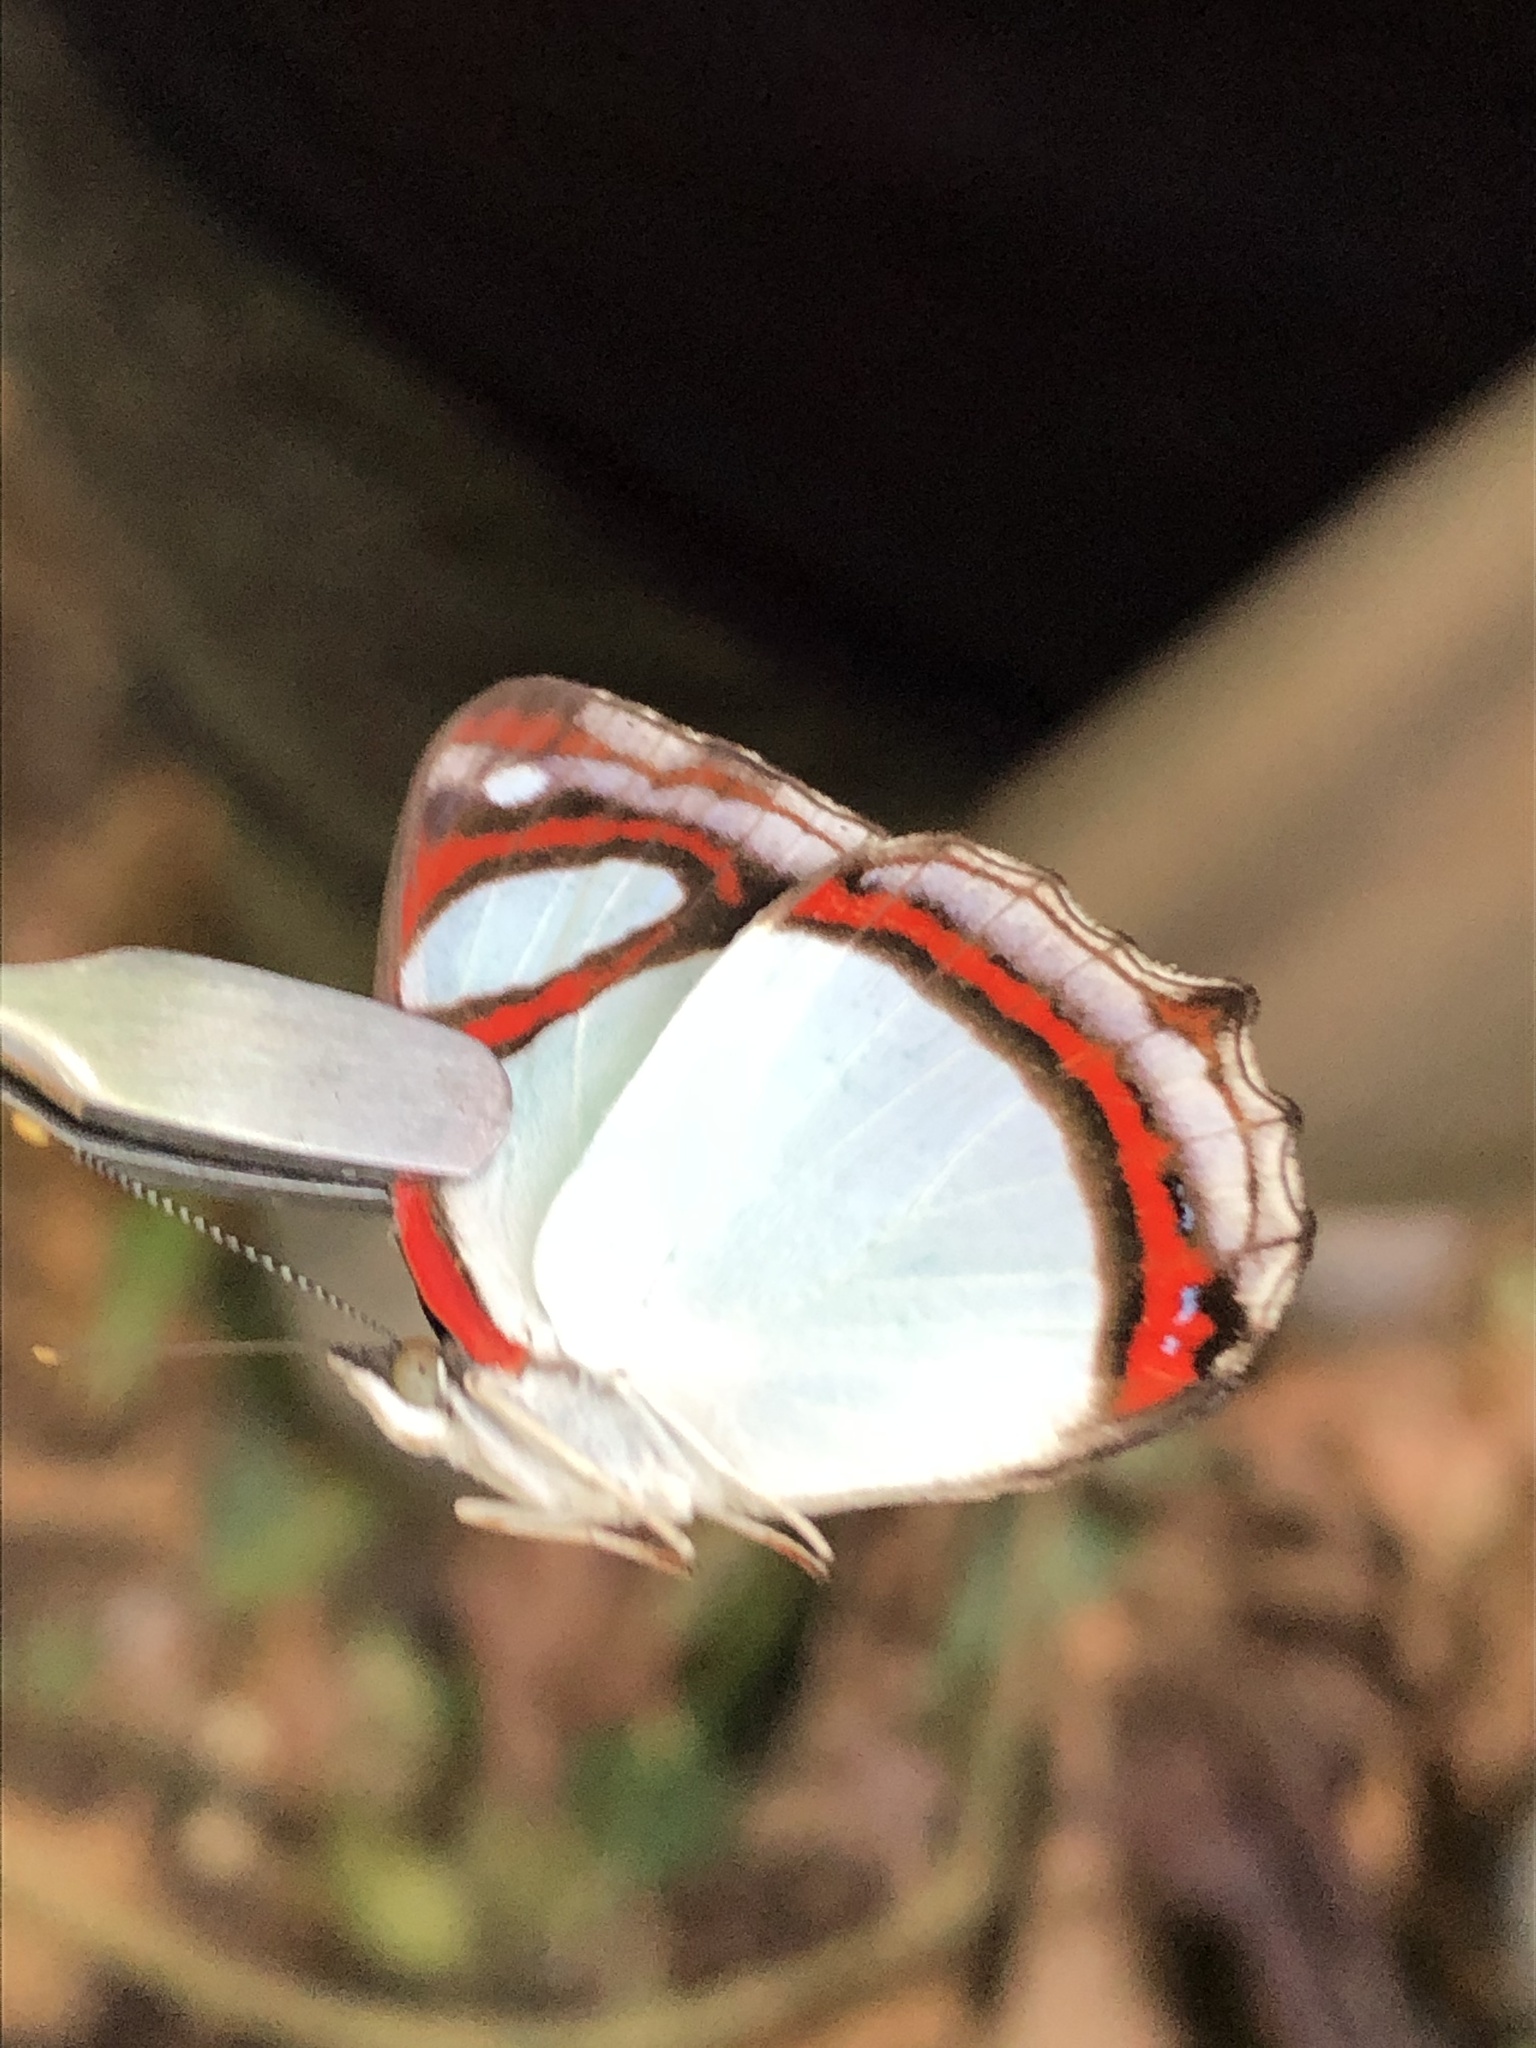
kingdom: Animalia
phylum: Arthropoda
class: Insecta
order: Lepidoptera
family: Nymphalidae
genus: Pyrrhogyra
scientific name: Pyrrhogyra crameri
